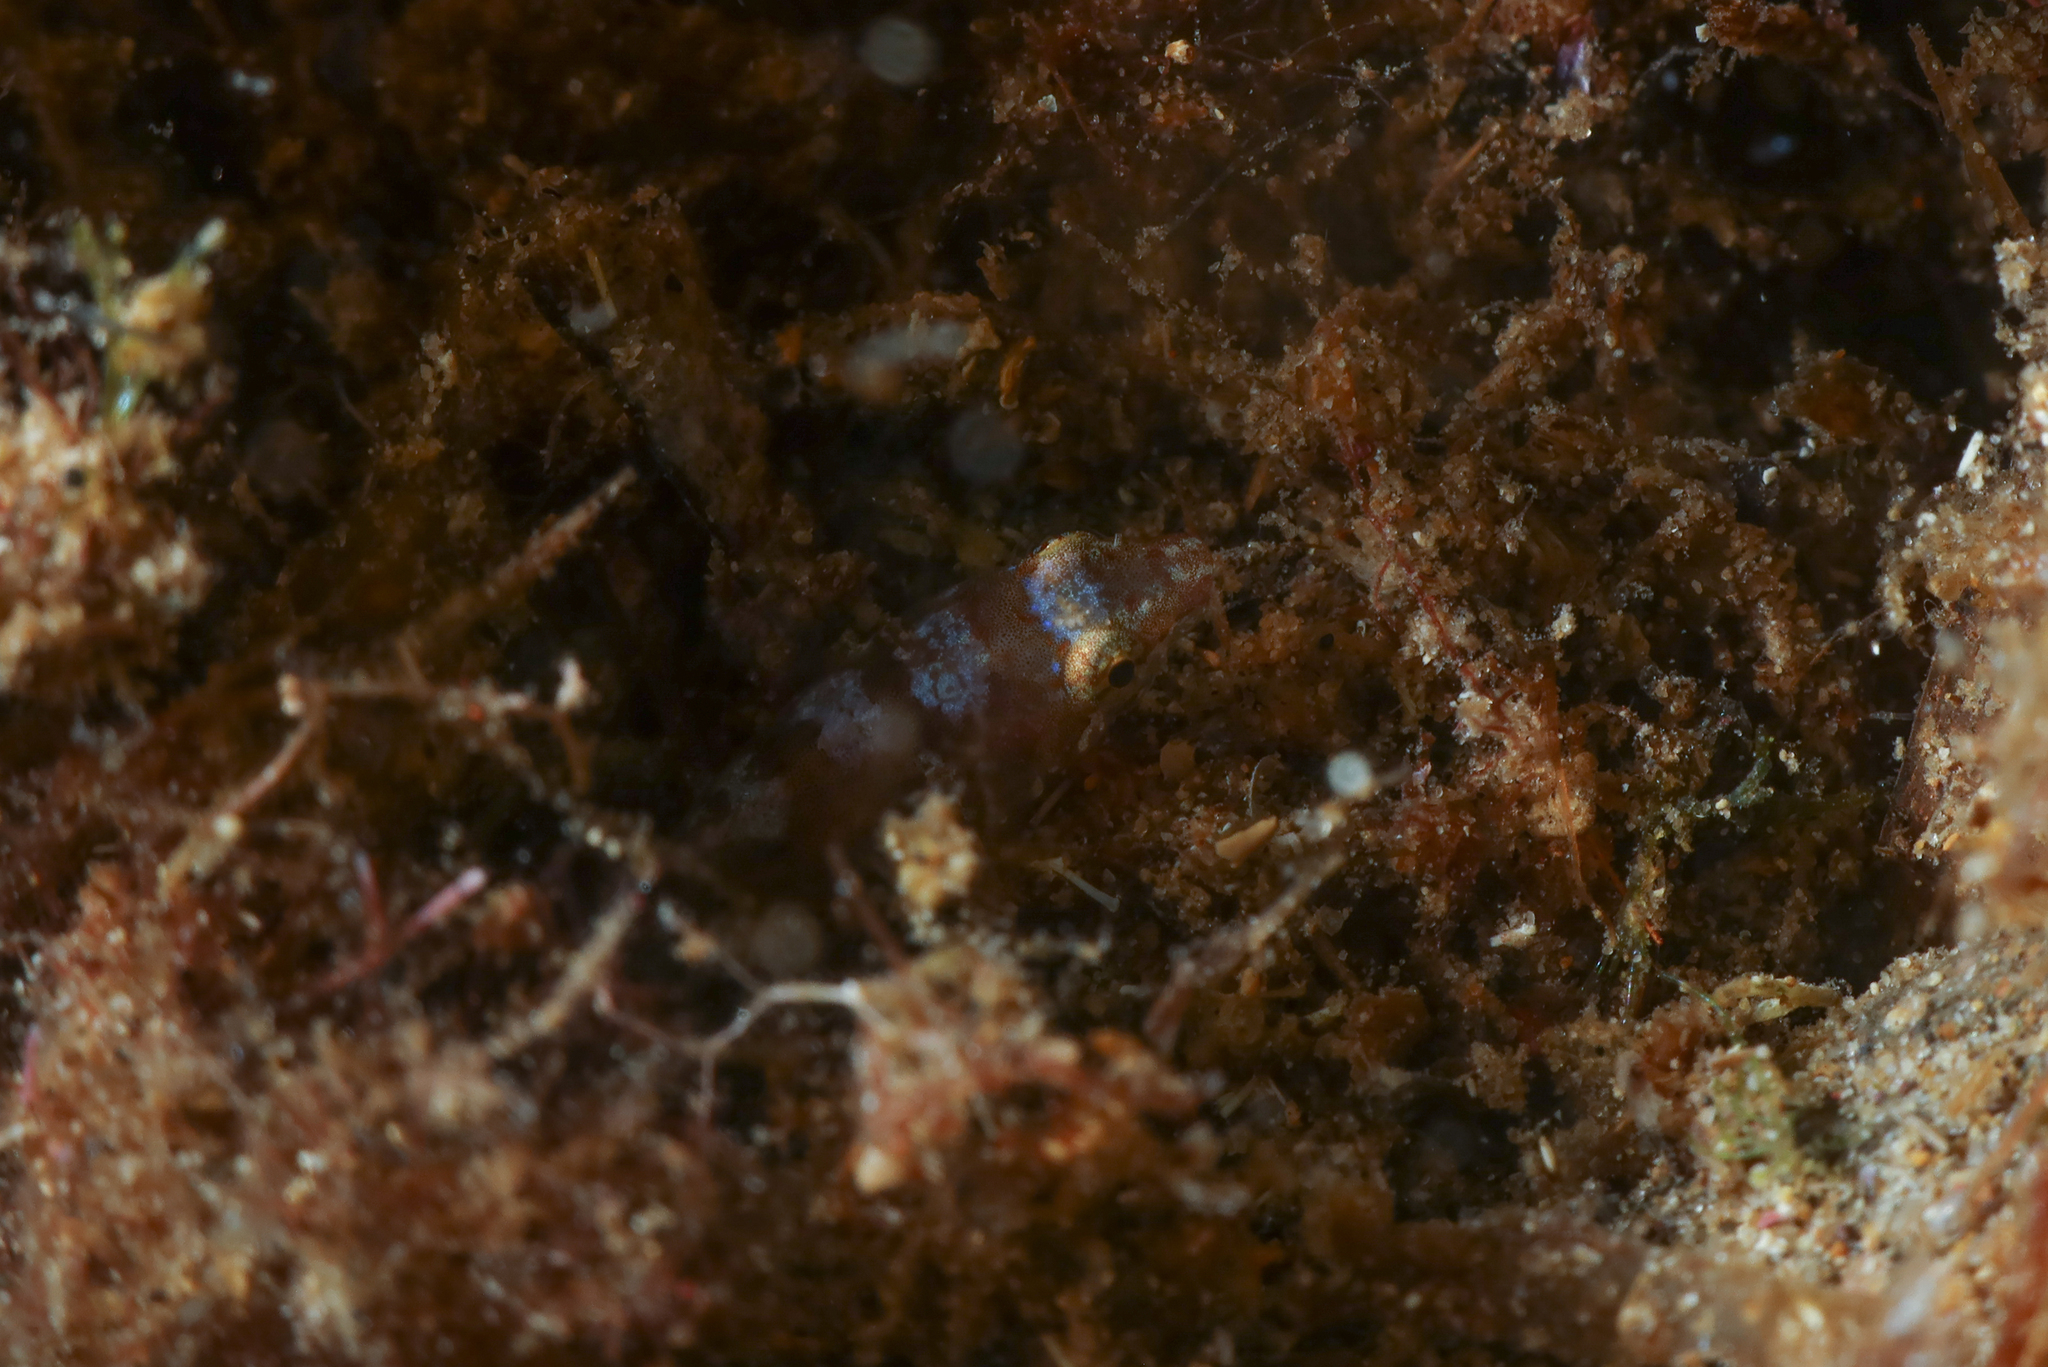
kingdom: Animalia
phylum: Chordata
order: Gobiesociformes
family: Gobiesocidae
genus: Apletodon
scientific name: Apletodon incognitus
